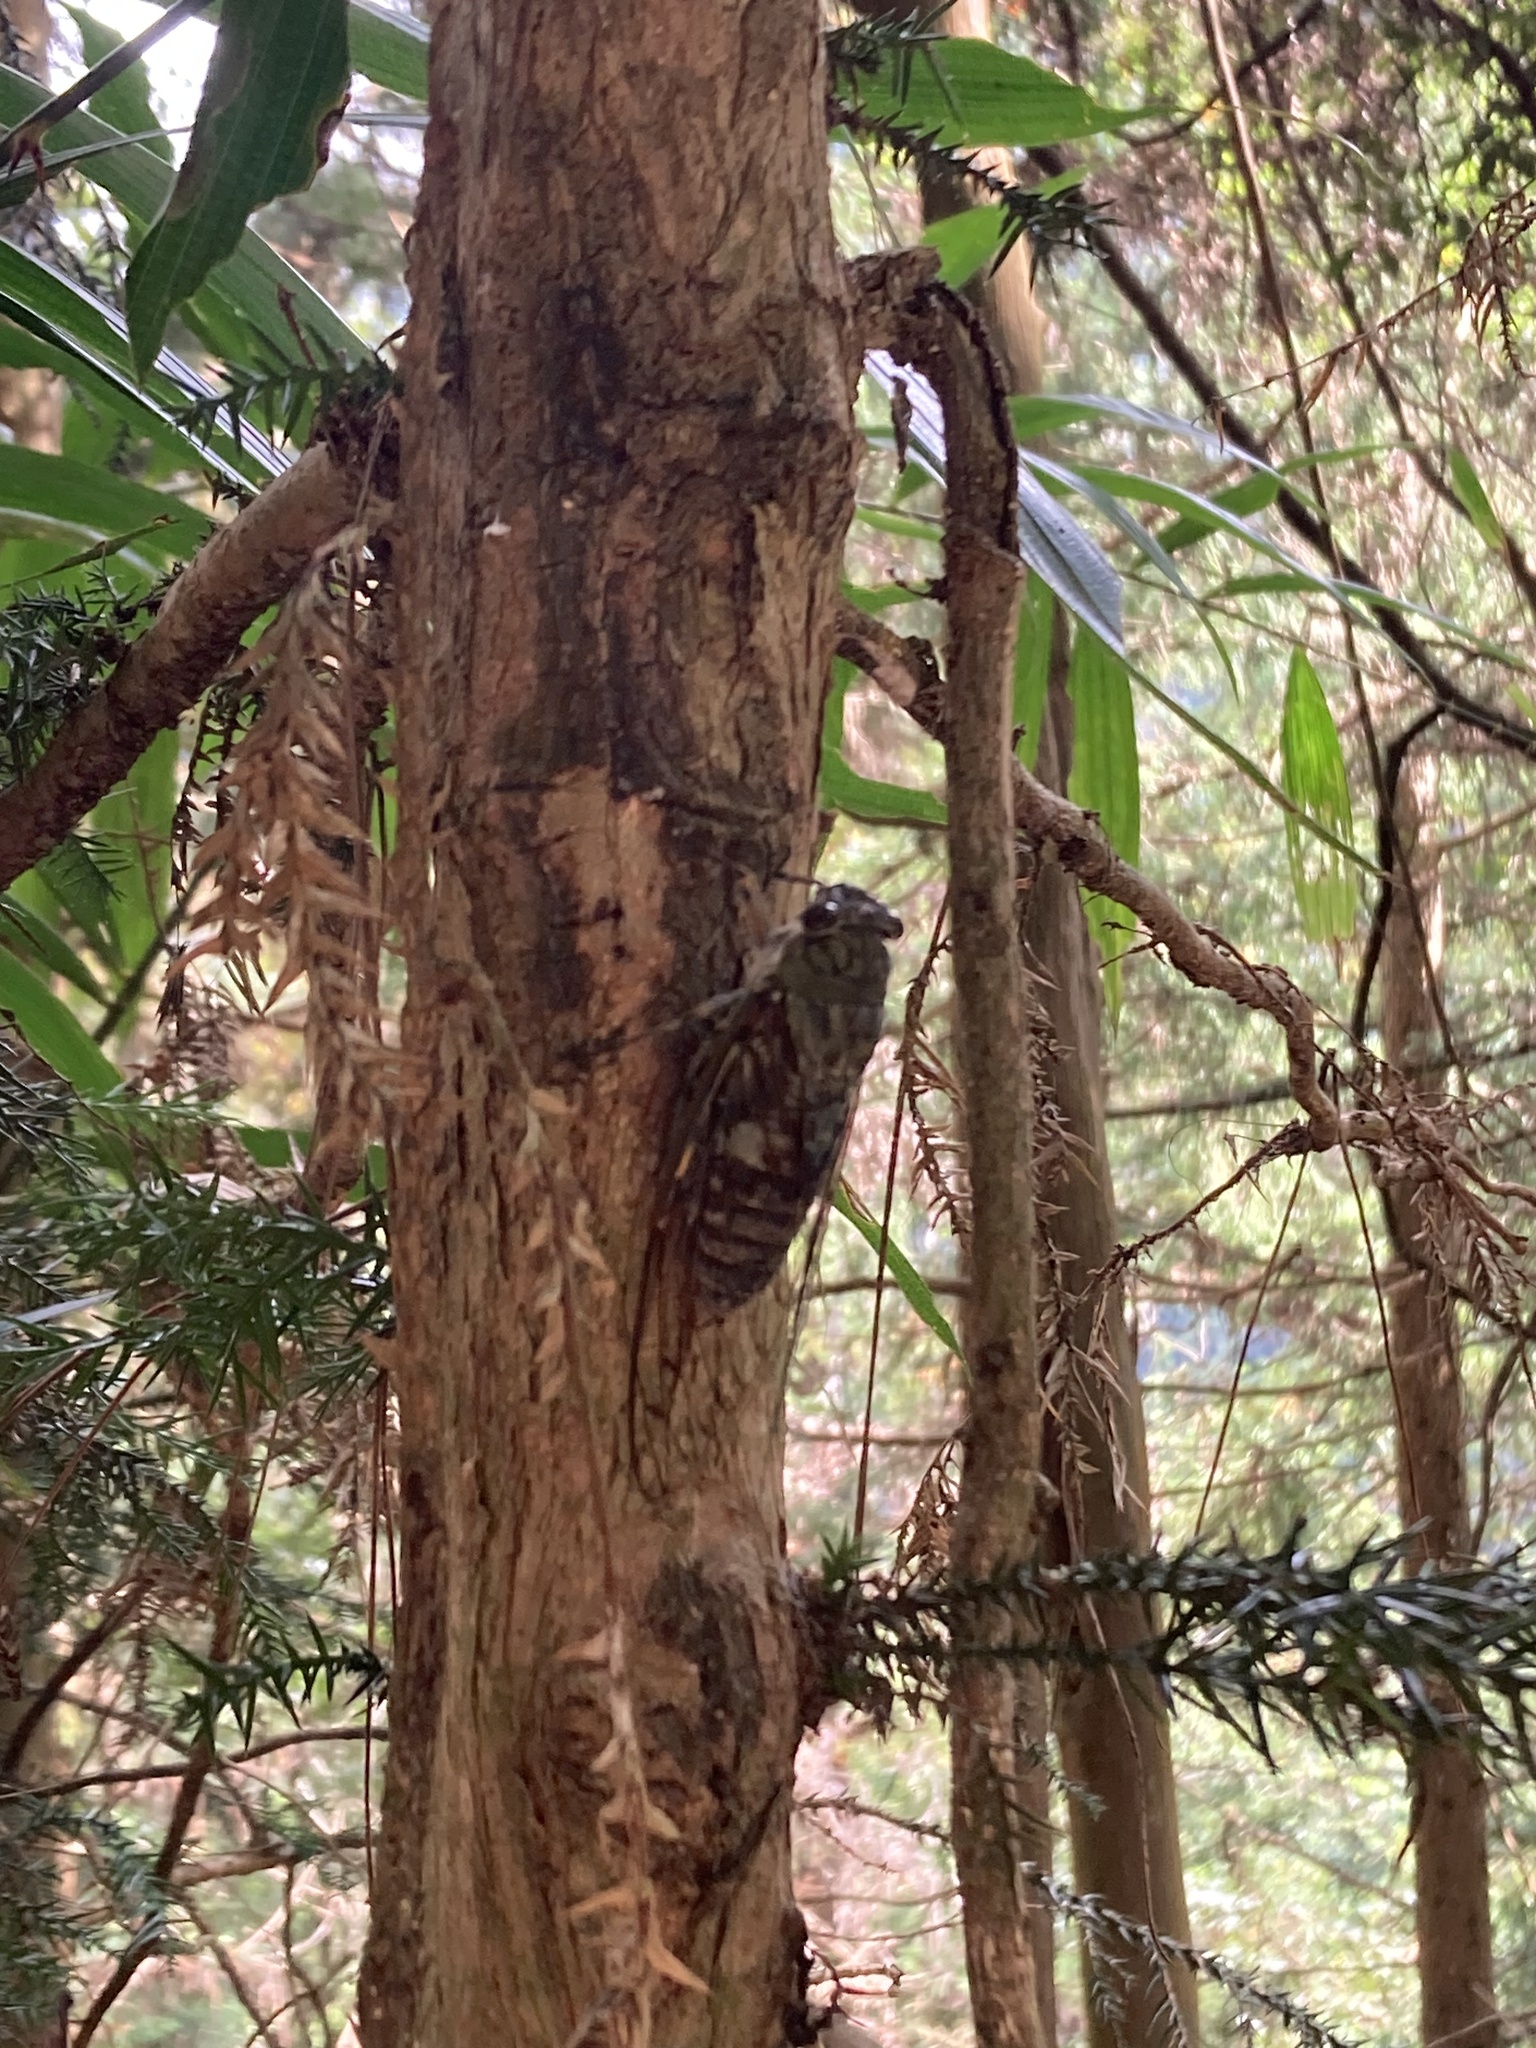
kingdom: Animalia
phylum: Arthropoda
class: Insecta
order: Hemiptera
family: Cicadidae
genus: Macrosemia
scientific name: Macrosemia kareisana
